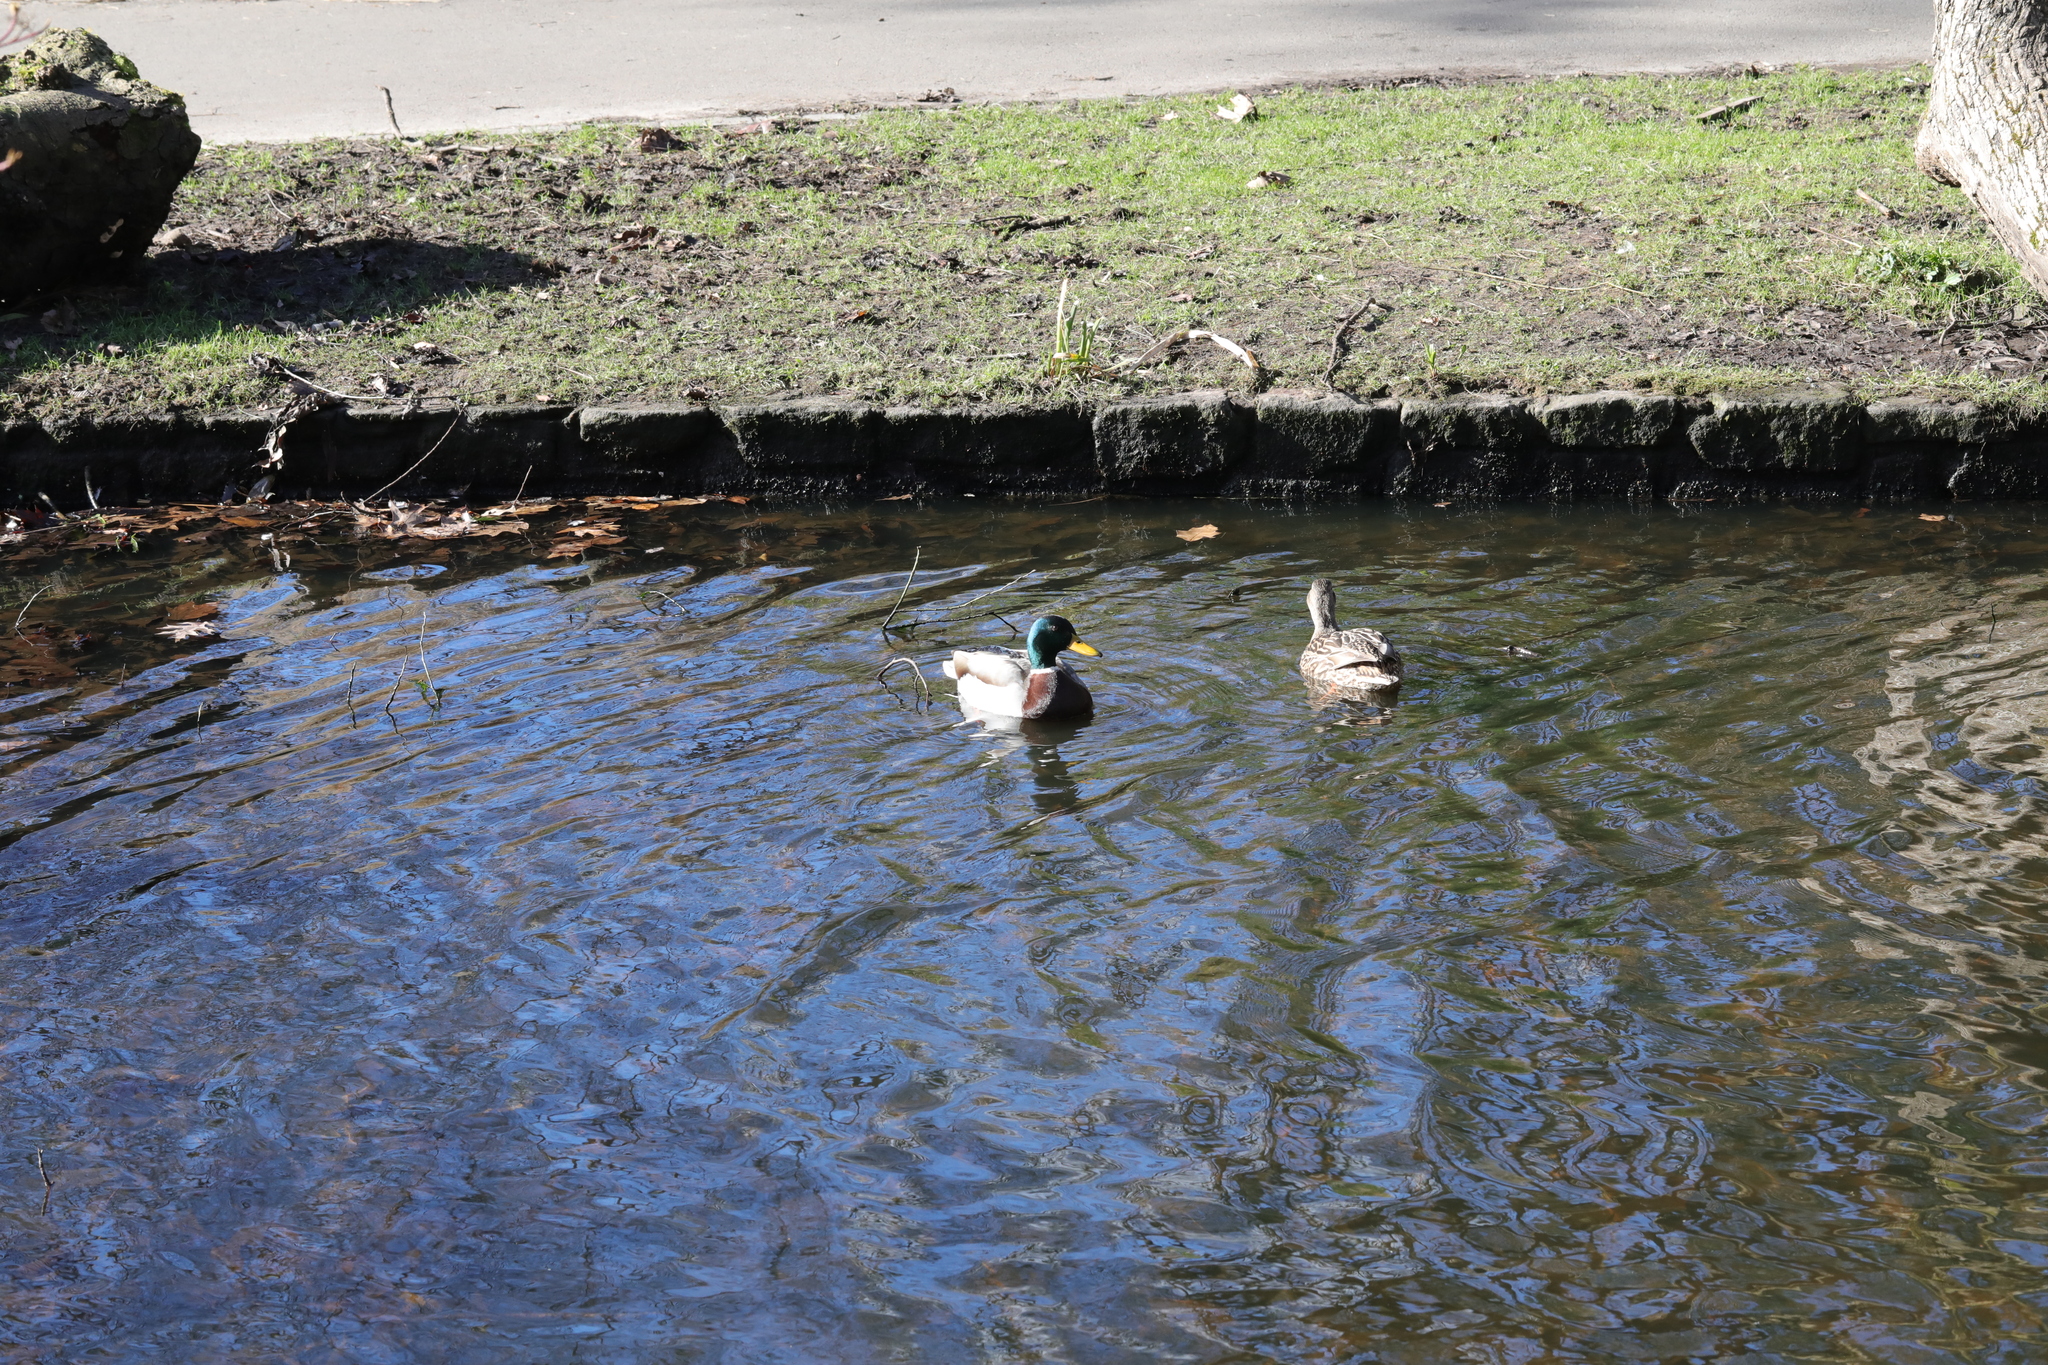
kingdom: Animalia
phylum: Chordata
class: Aves
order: Anseriformes
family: Anatidae
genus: Anas
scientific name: Anas platyrhynchos
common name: Mallard
